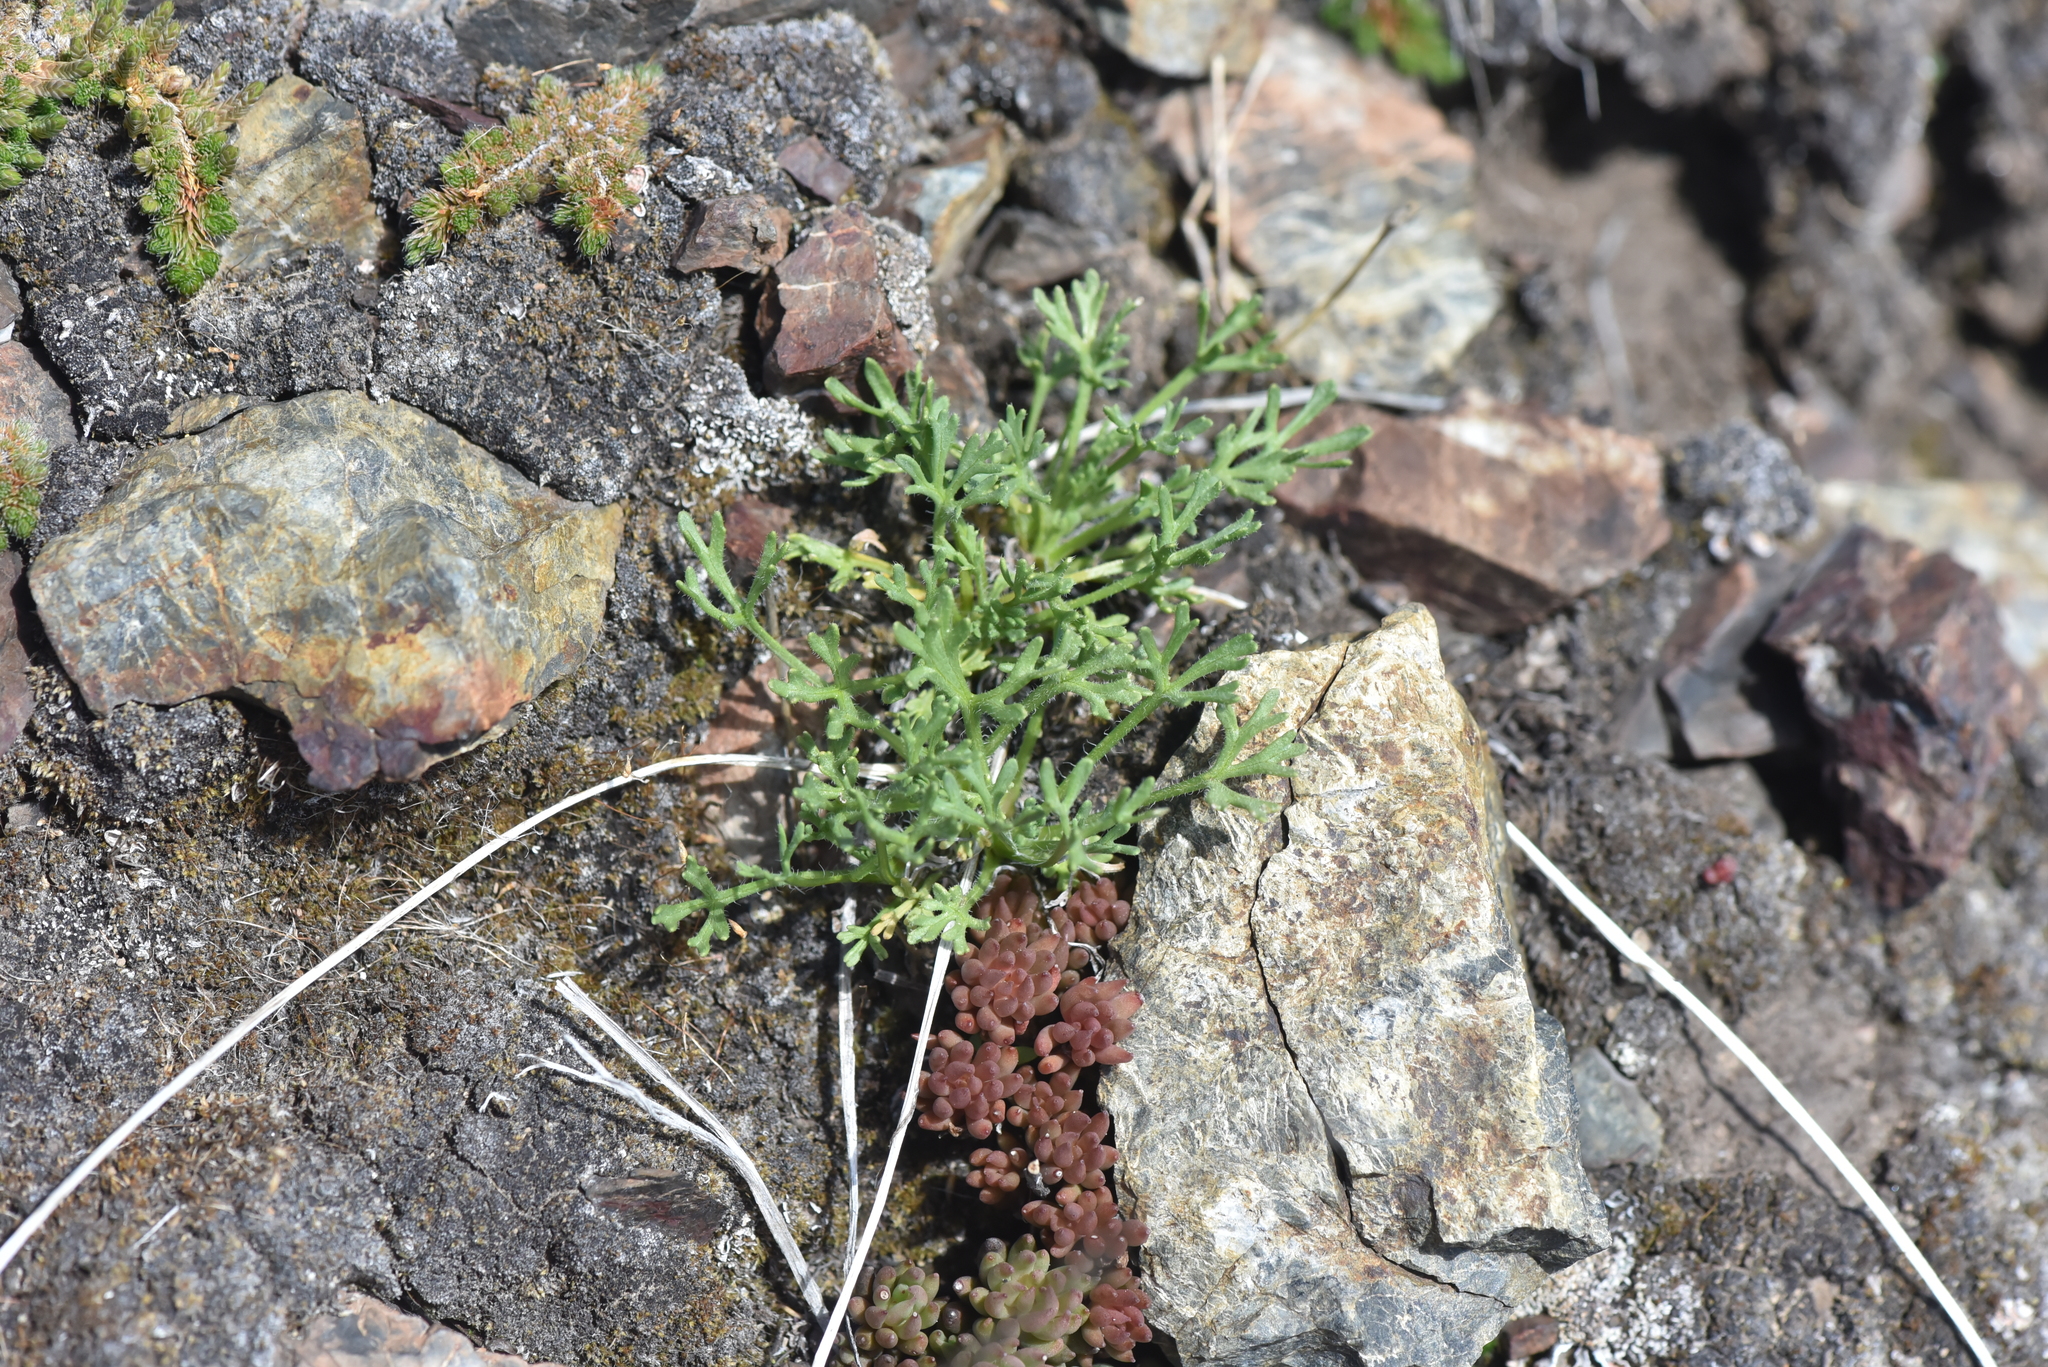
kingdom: Plantae
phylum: Tracheophyta
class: Magnoliopsida
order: Asterales
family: Asteraceae
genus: Erigeron
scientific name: Erigeron compositus
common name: Dwarf mountain fleabane
